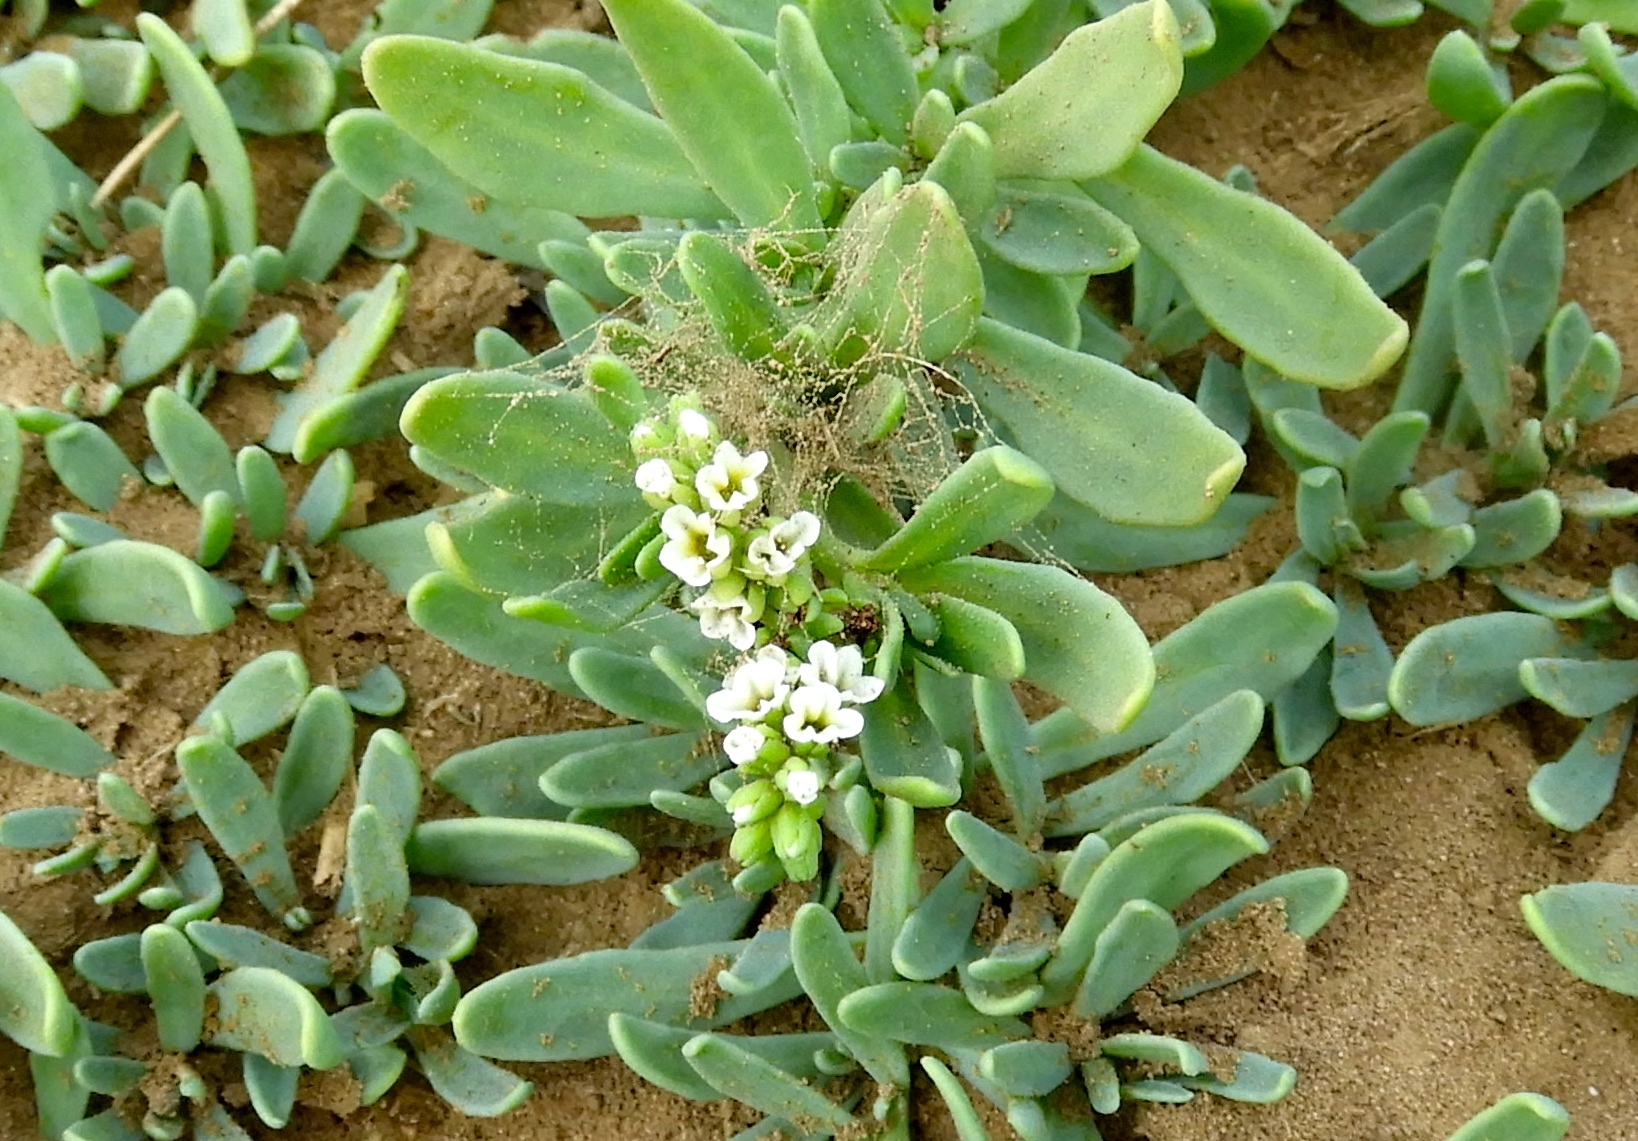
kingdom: Plantae
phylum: Tracheophyta
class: Magnoliopsida
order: Boraginales
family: Heliotropiaceae
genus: Heliotropium
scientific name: Heliotropium curassavicum
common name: Seaside heliotrope
